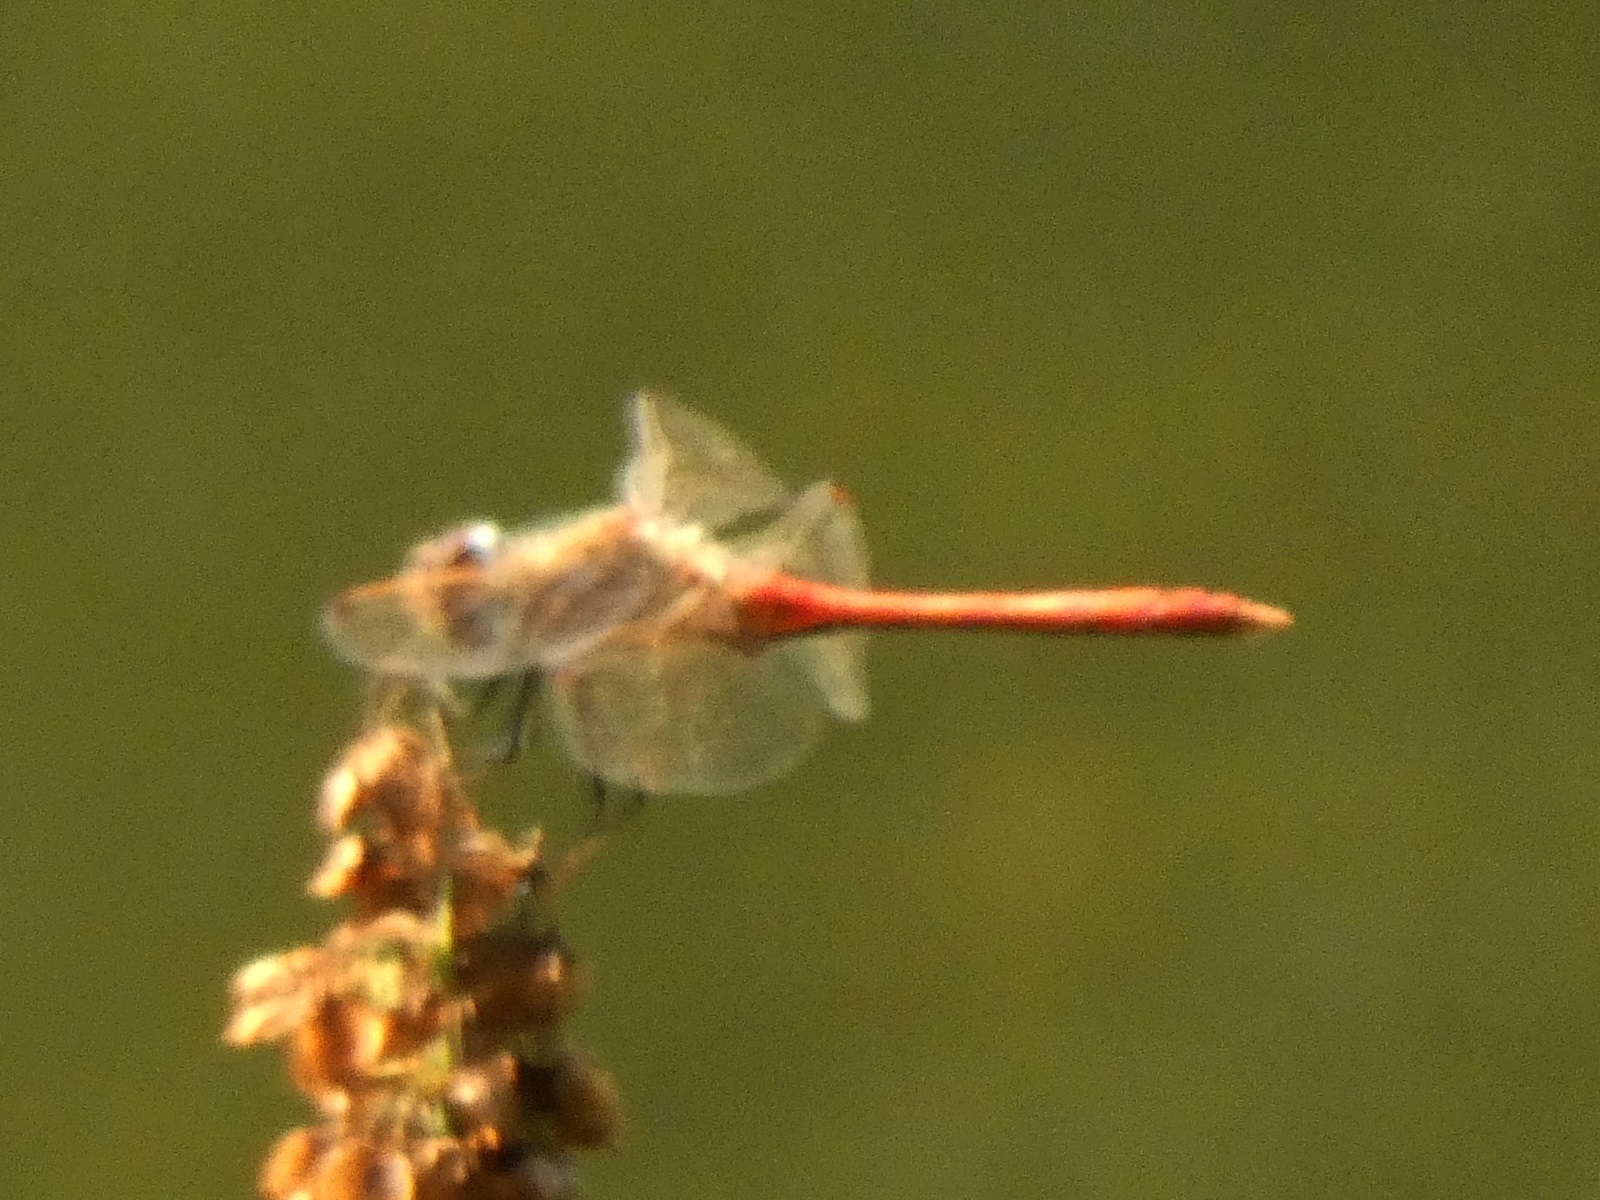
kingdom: Animalia
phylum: Arthropoda
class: Insecta
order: Odonata
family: Libellulidae
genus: Sympetrum
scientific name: Sympetrum vulgatum
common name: Vagrant darter
